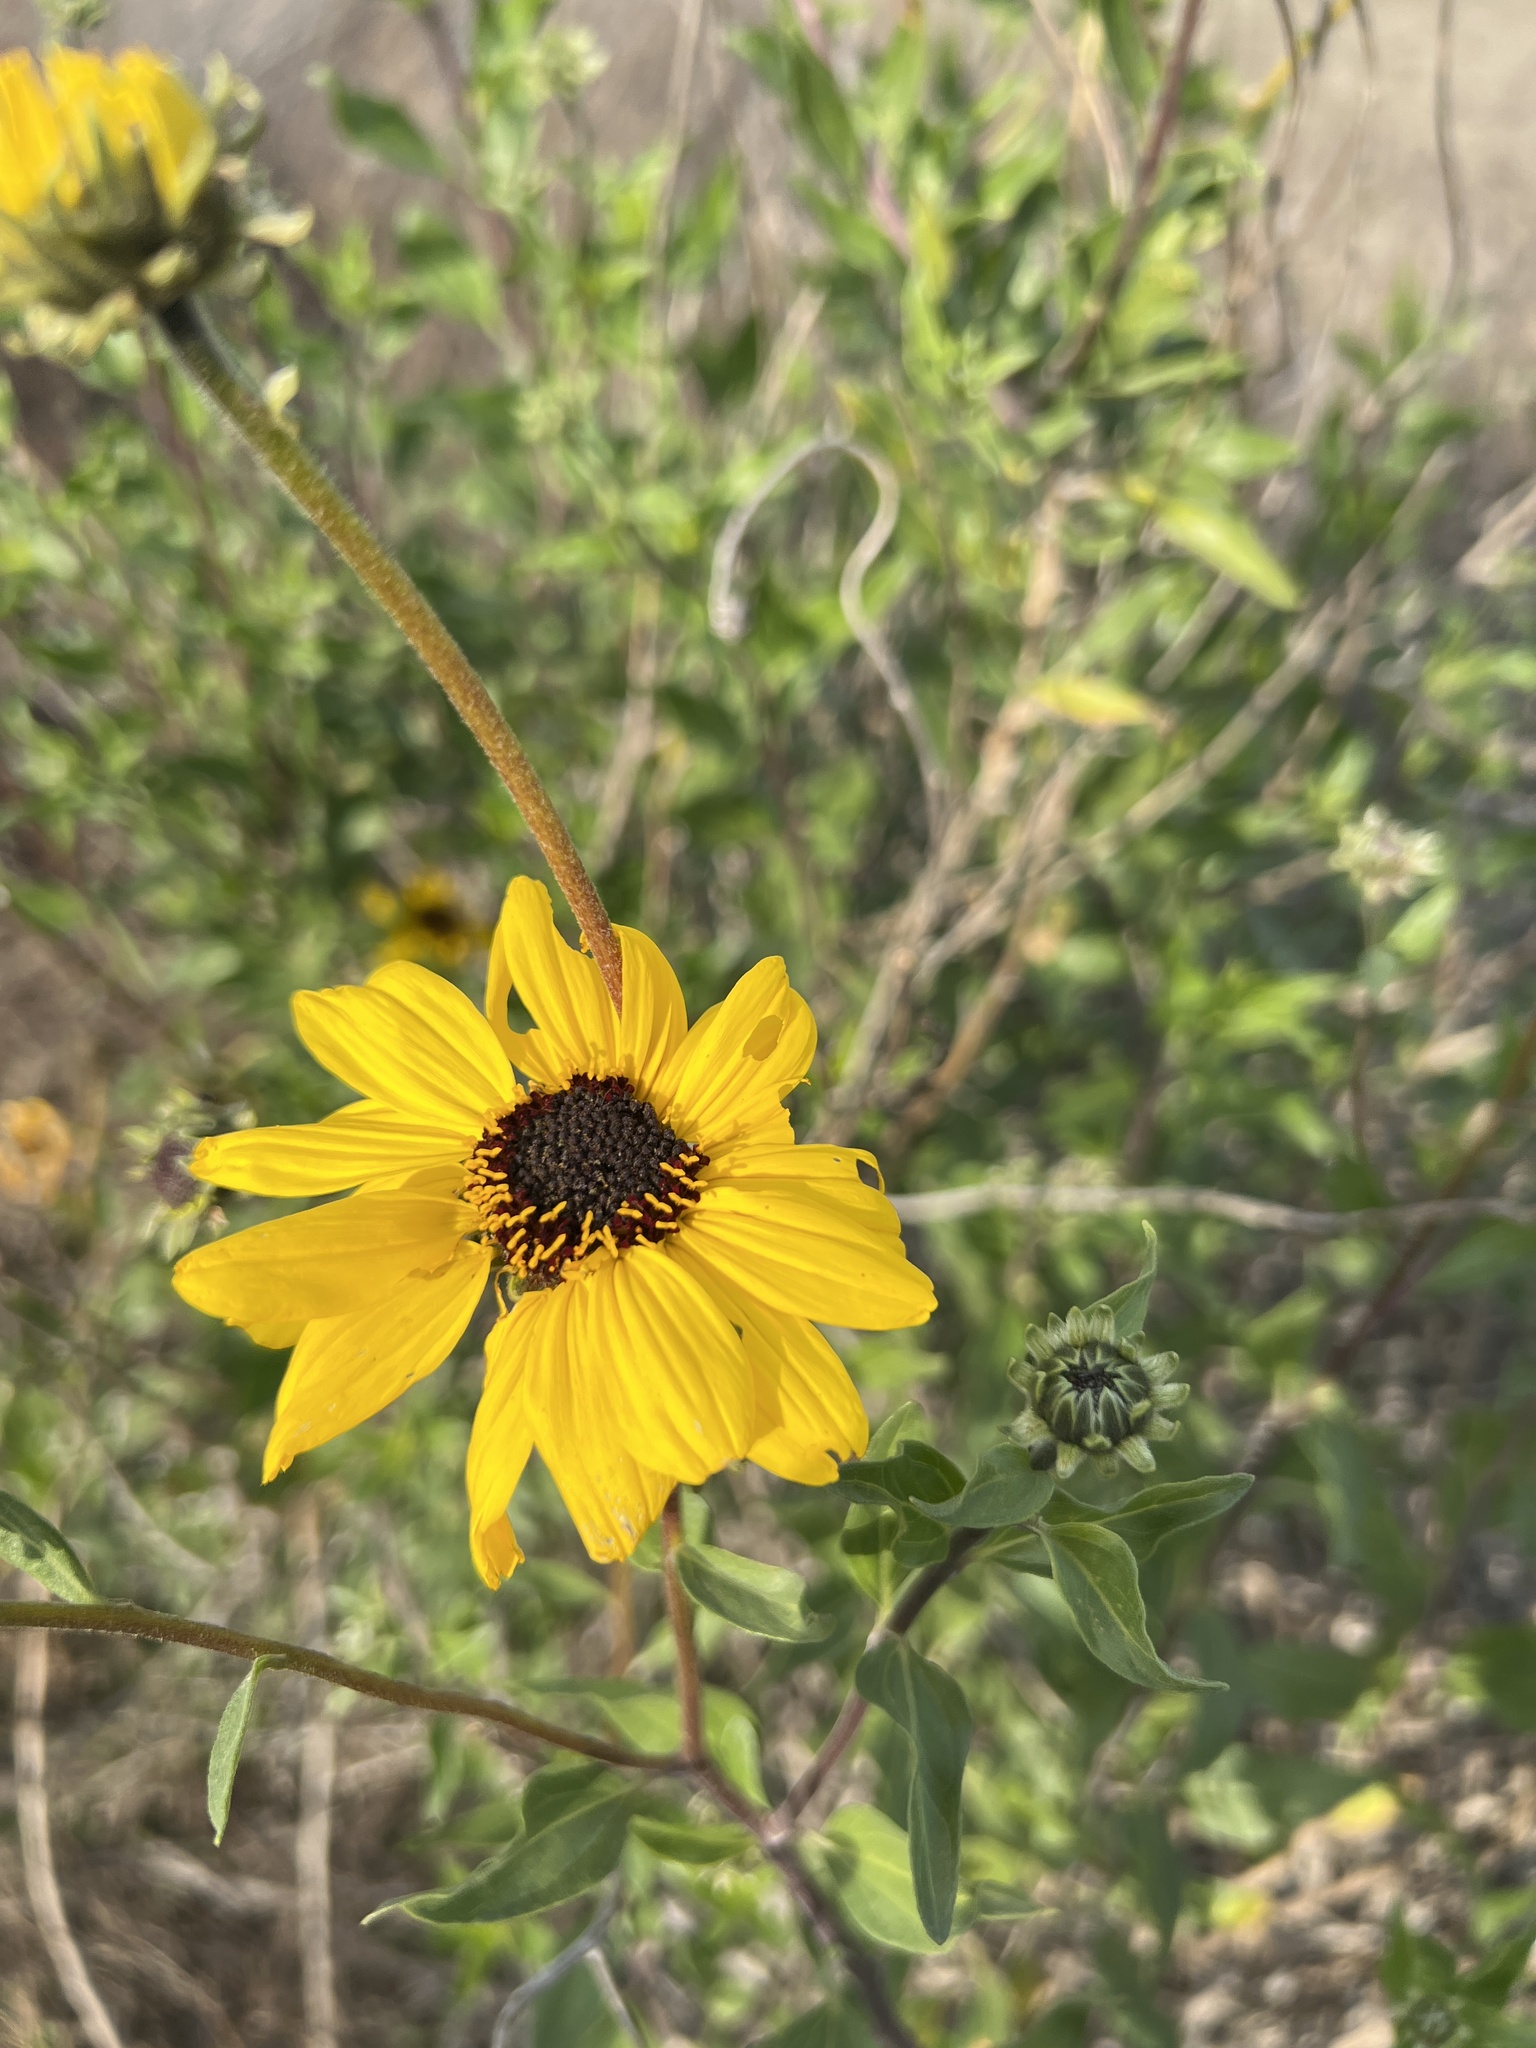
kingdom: Plantae
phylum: Tracheophyta
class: Magnoliopsida
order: Asterales
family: Asteraceae
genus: Encelia
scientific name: Encelia californica
